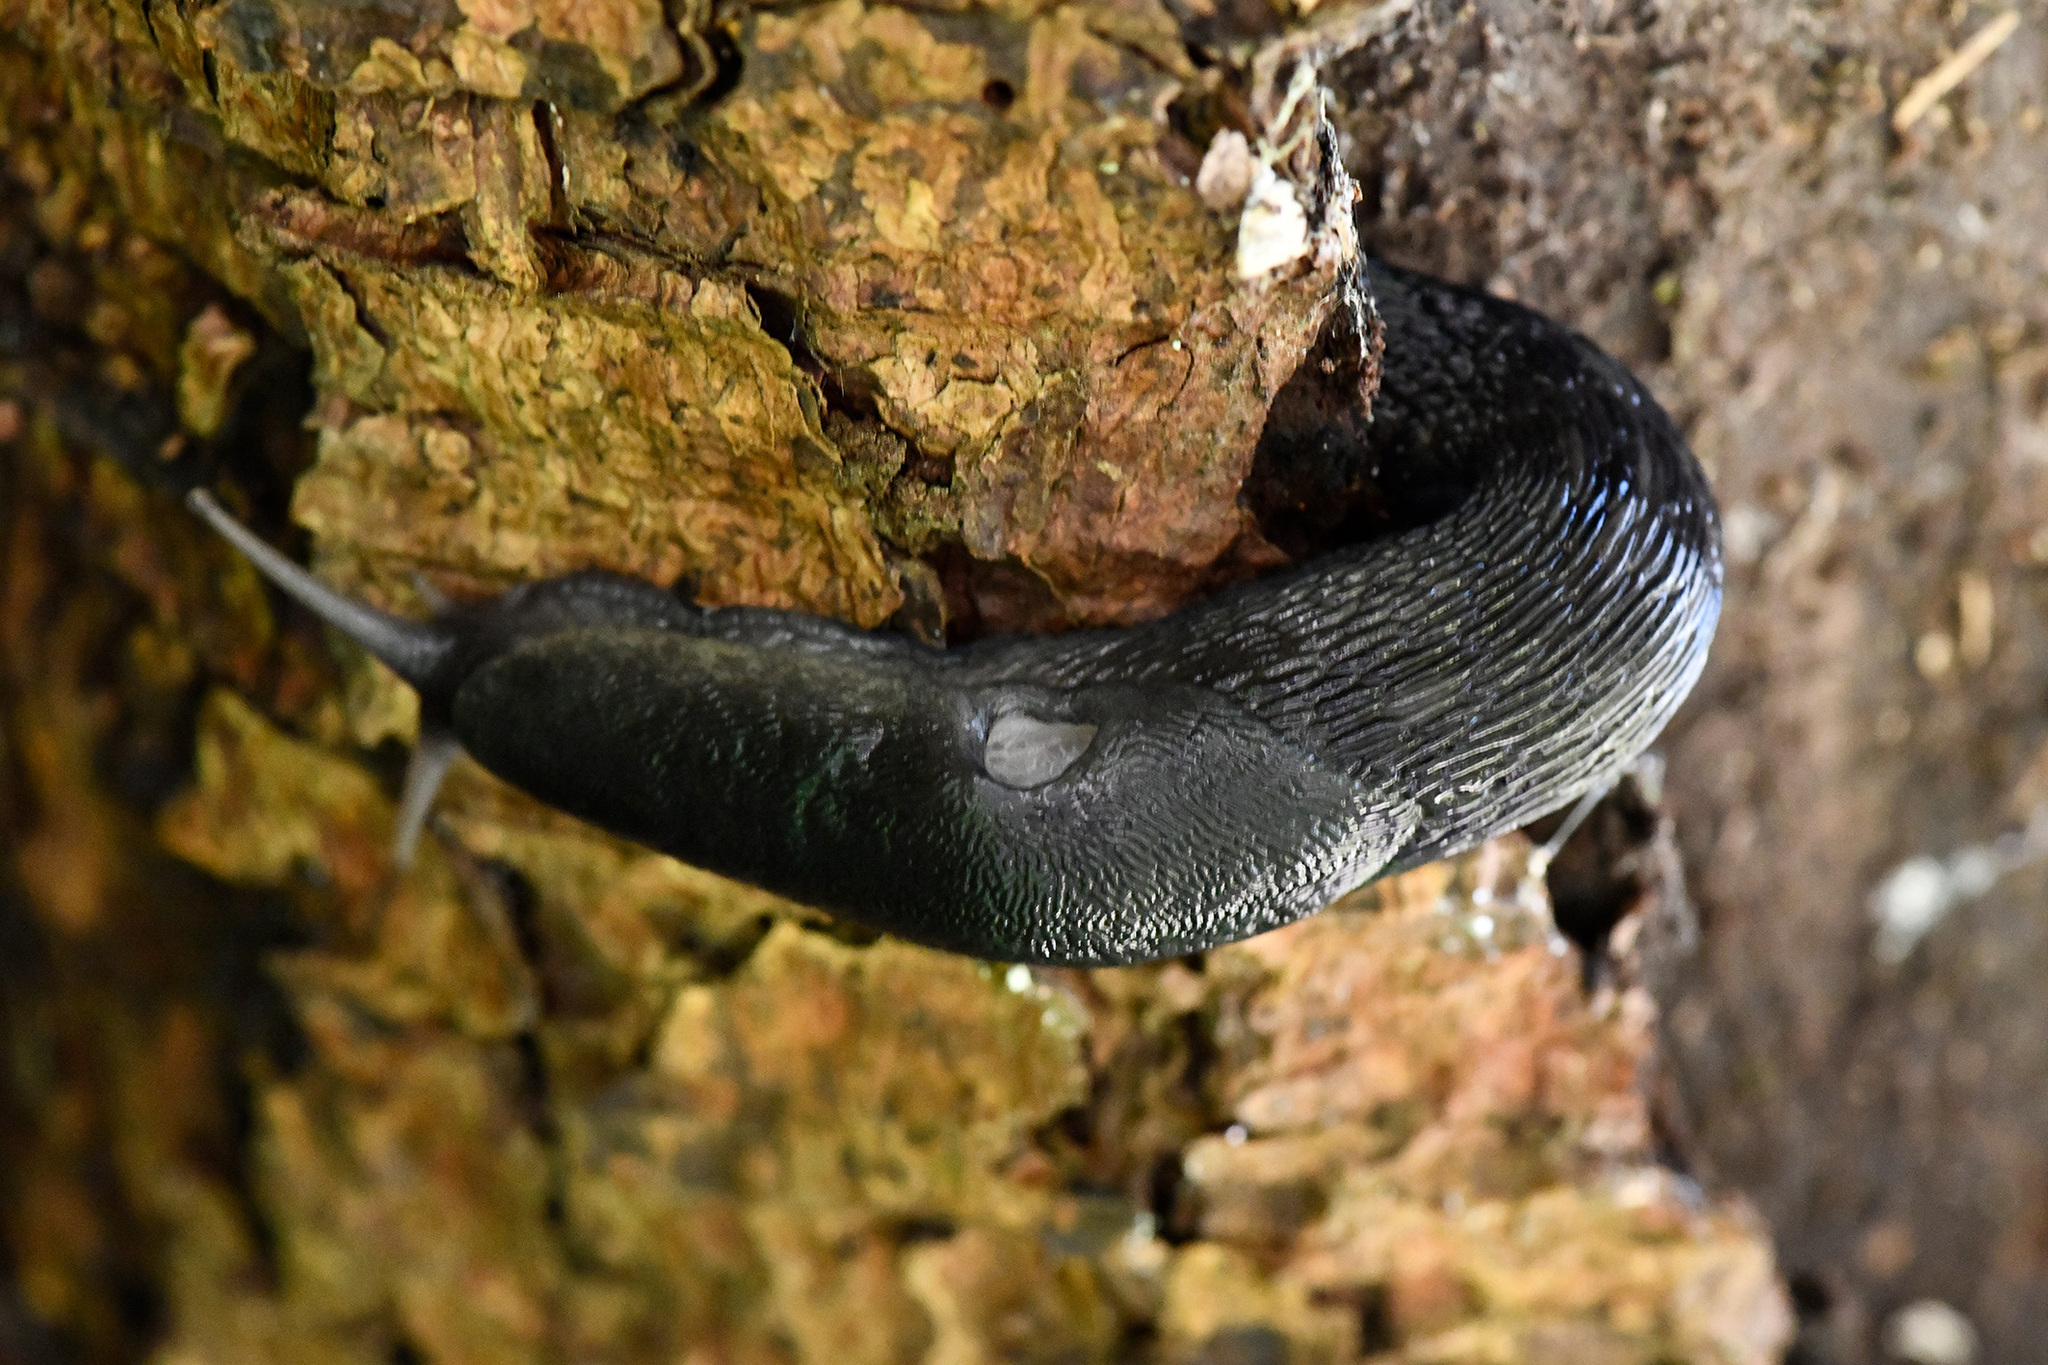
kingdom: Animalia
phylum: Mollusca
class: Gastropoda
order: Stylommatophora
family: Limacidae
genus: Limax
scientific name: Limax cinereoniger
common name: Ash-black slug
